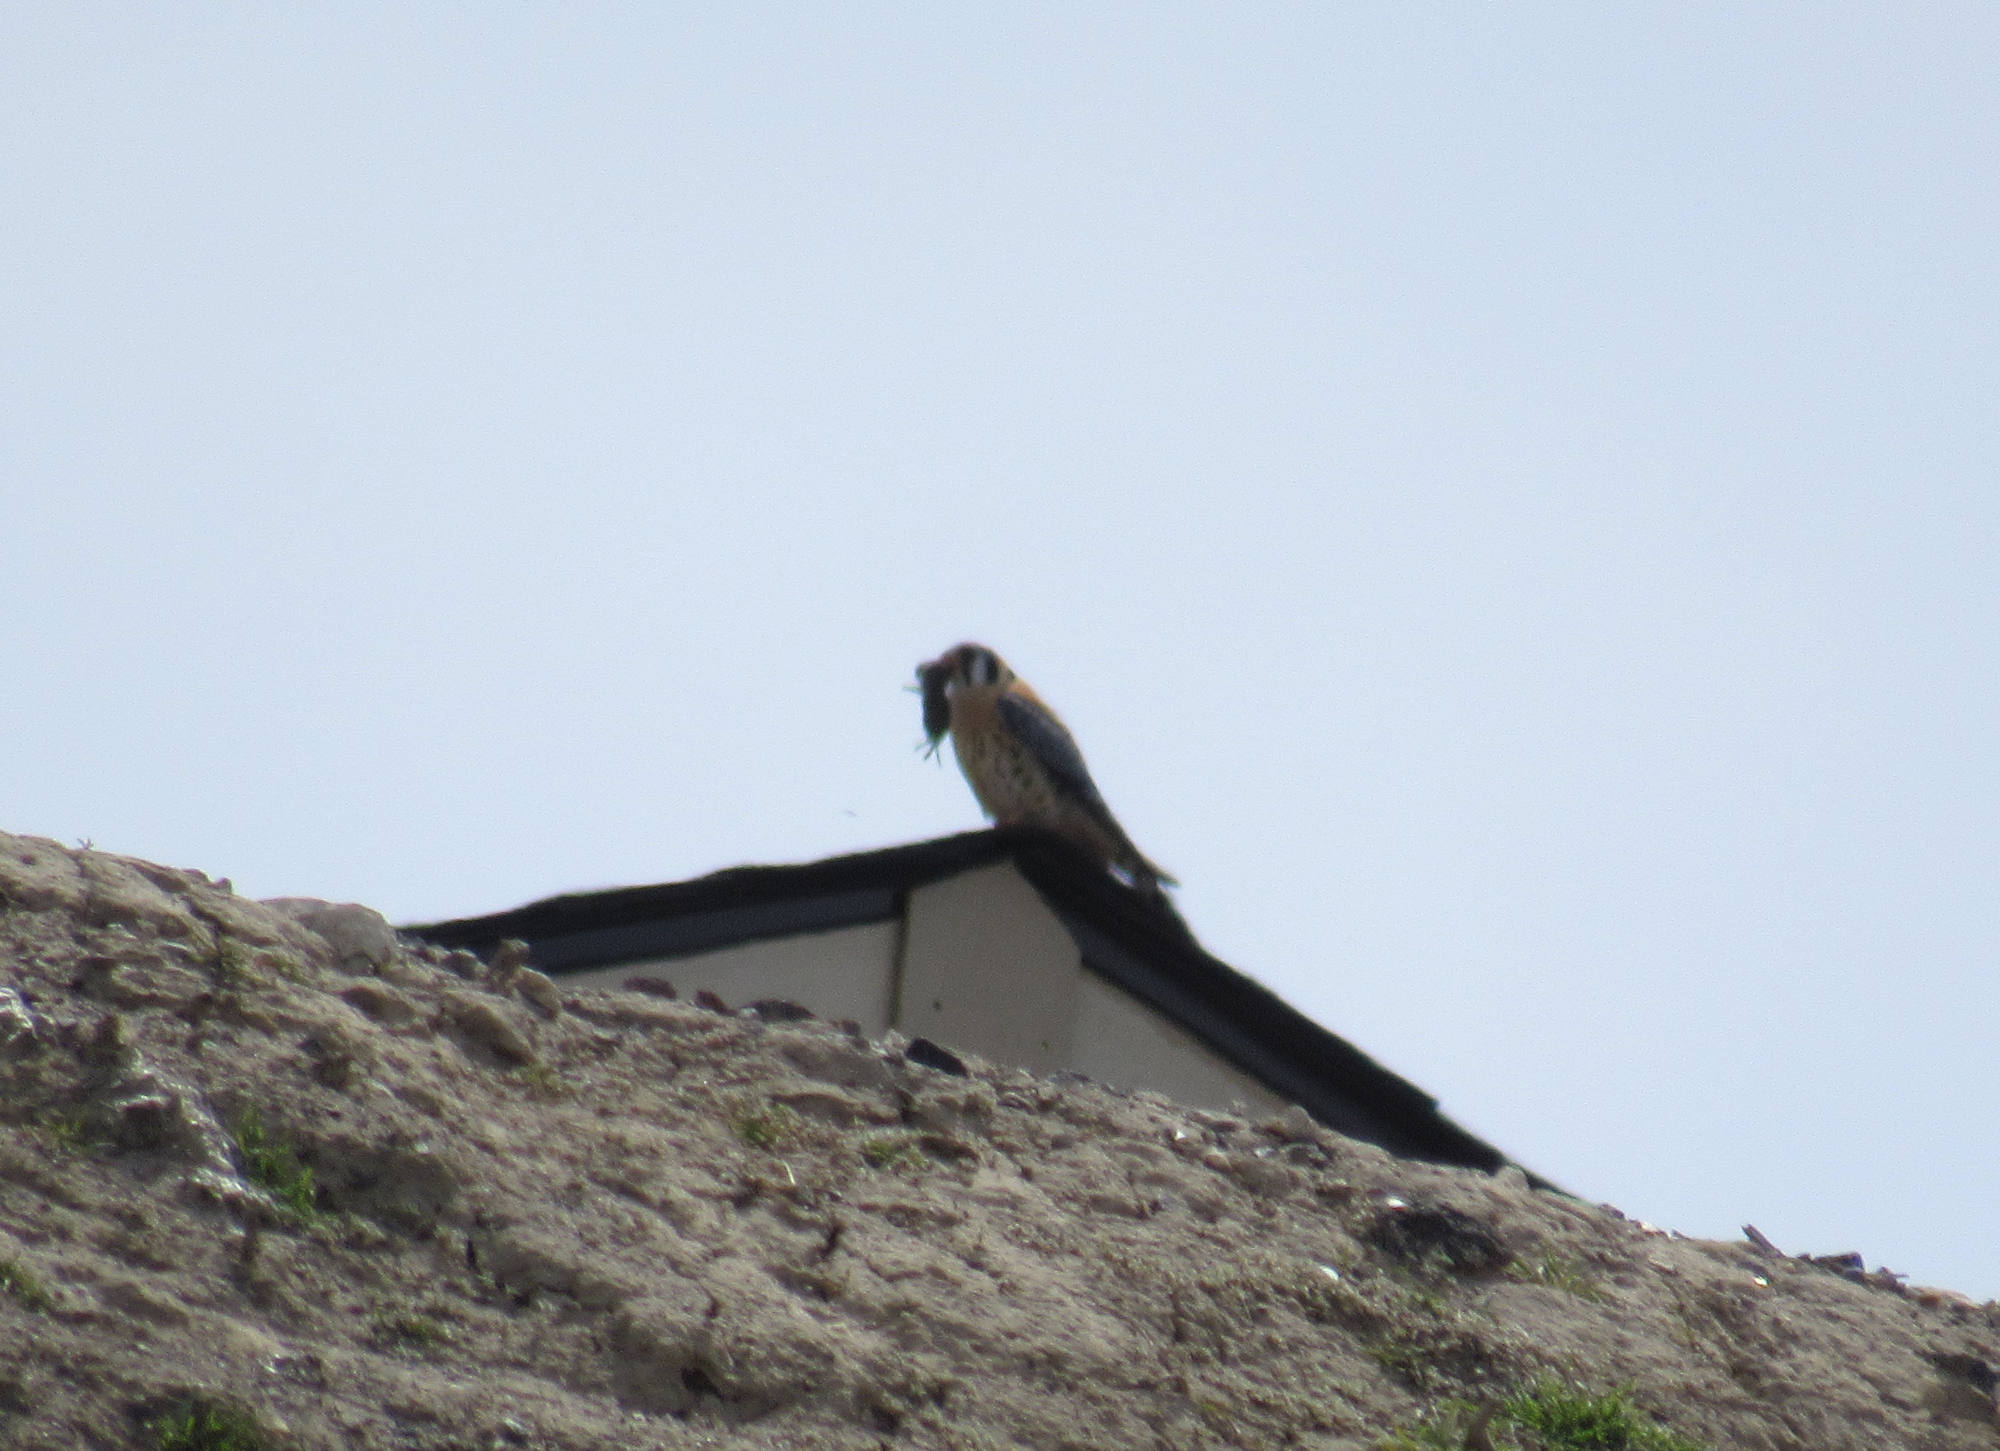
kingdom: Animalia
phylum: Chordata
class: Aves
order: Falconiformes
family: Falconidae
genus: Falco
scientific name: Falco sparverius
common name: American kestrel
